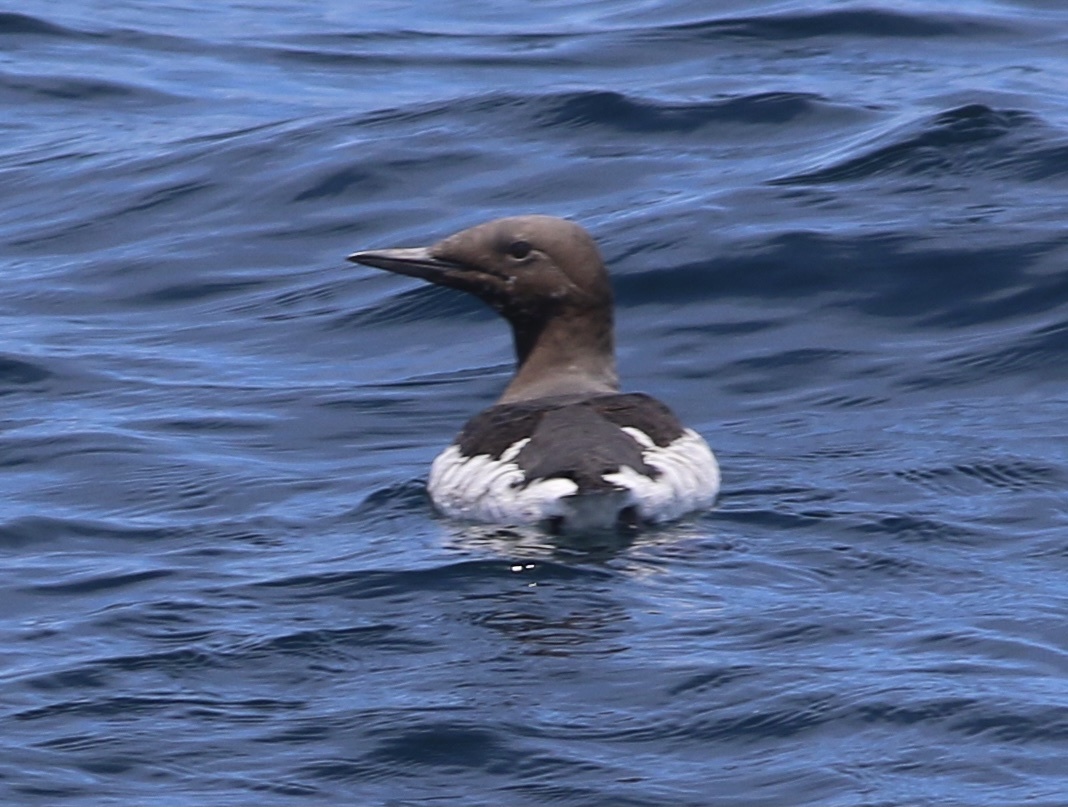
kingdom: Animalia
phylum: Chordata
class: Aves
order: Charadriiformes
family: Alcidae
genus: Uria
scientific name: Uria aalge
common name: Common murre
